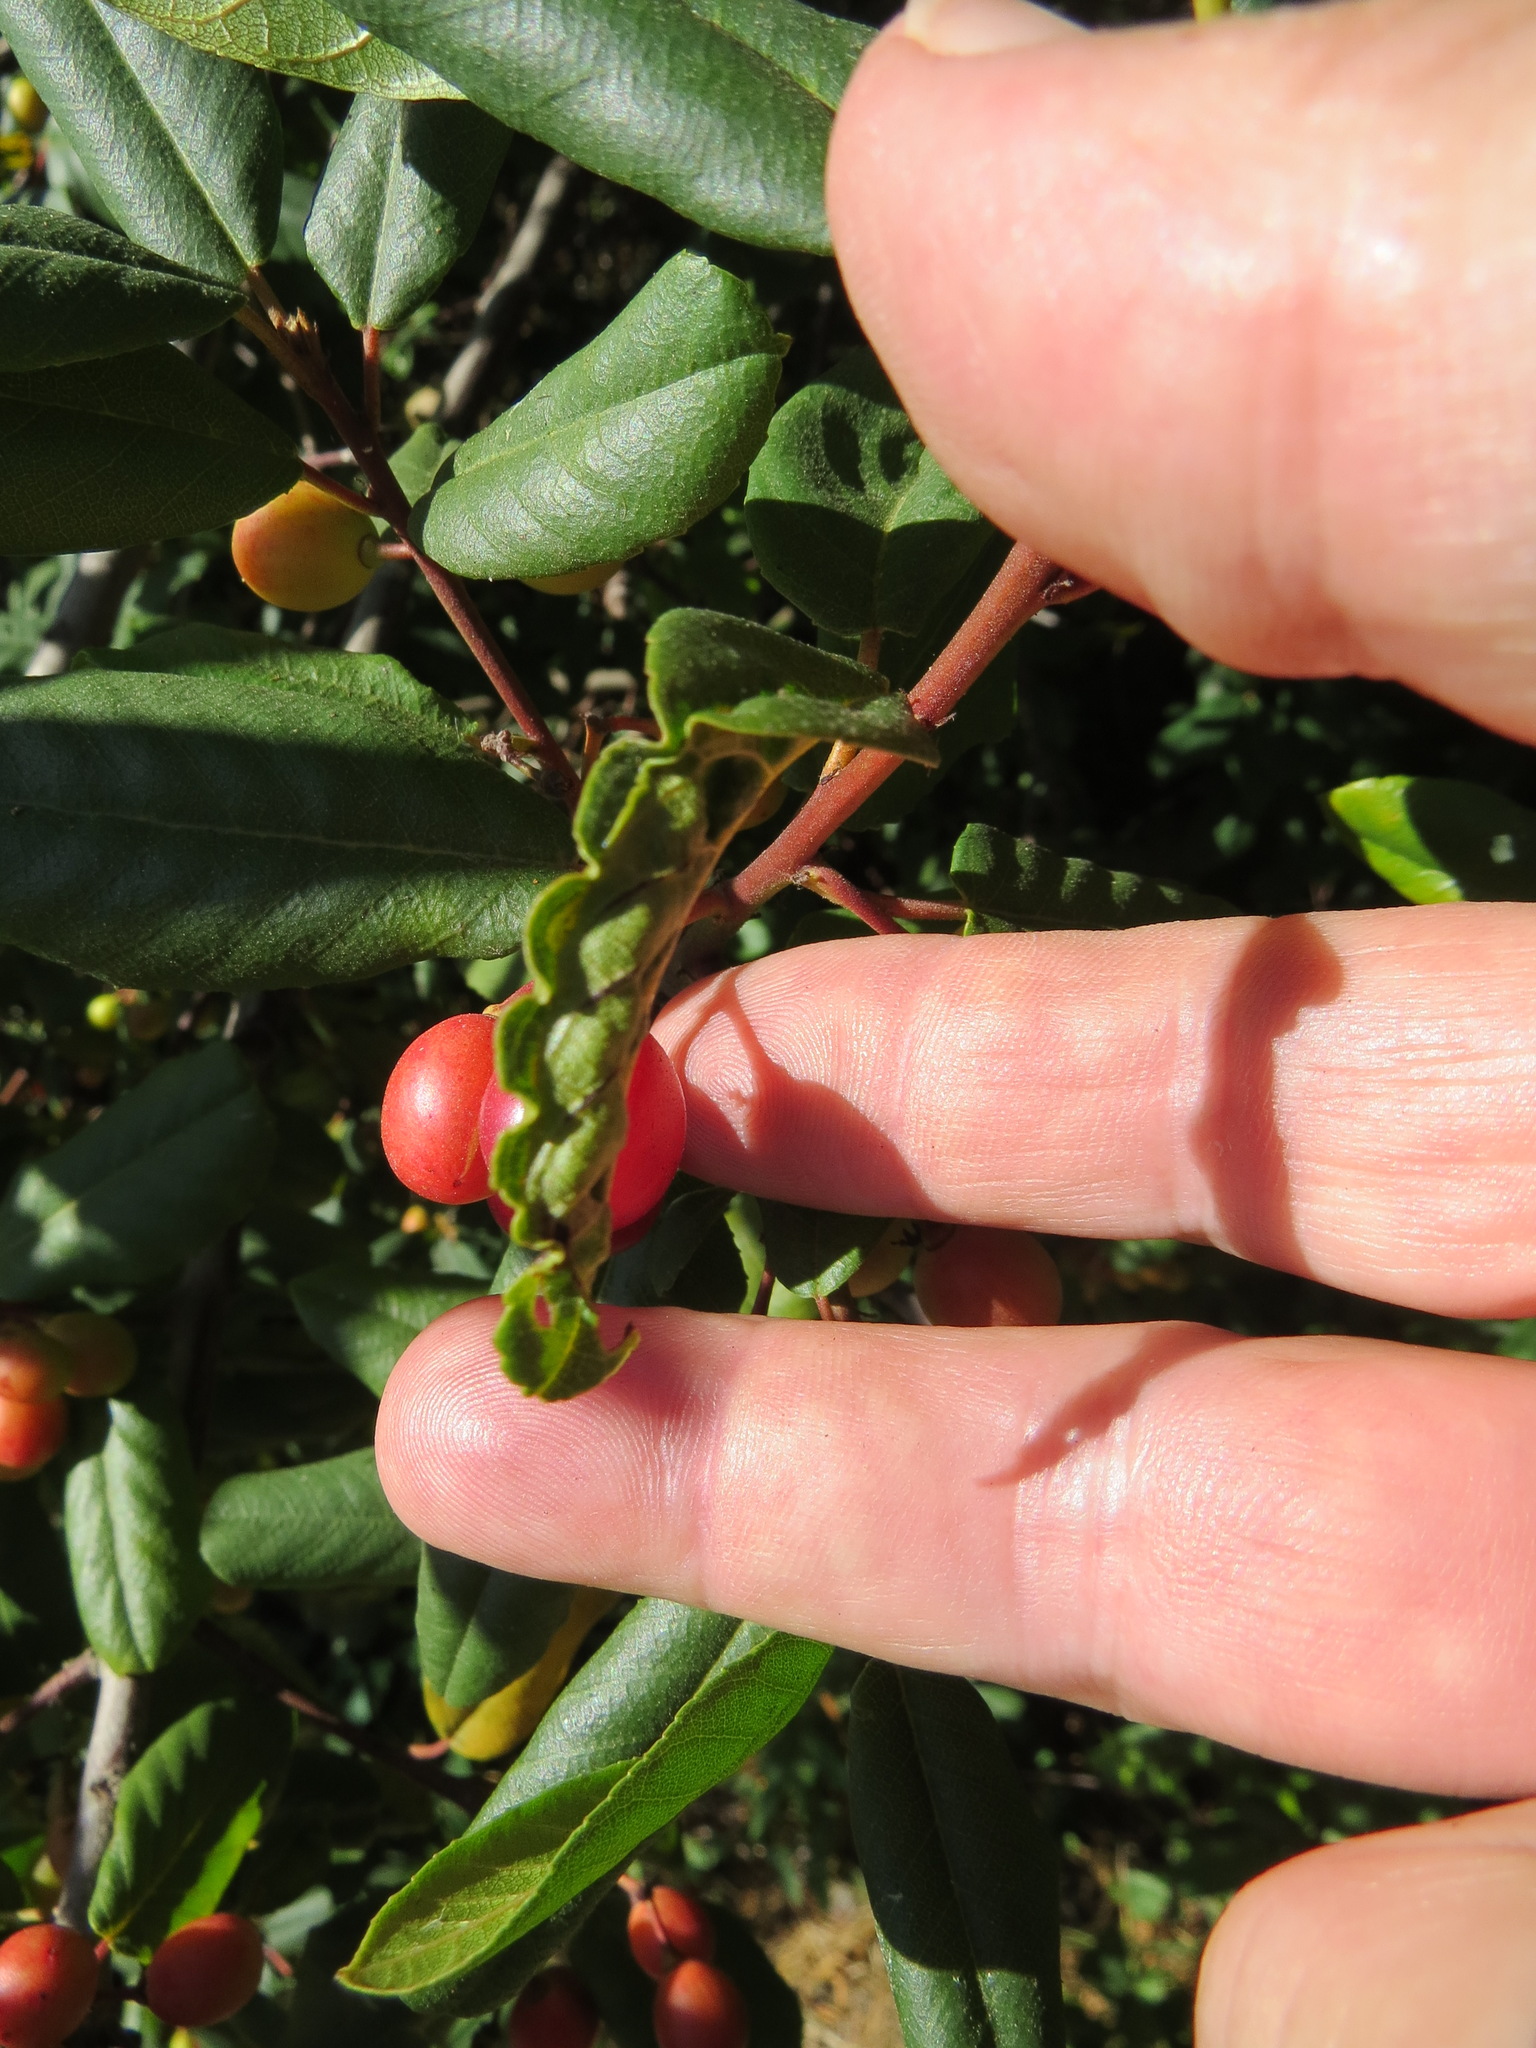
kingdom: Animalia
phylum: Arthropoda
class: Insecta
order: Lepidoptera
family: Cosmopterigidae
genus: Sorhagenia
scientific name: Sorhagenia nimbosus
